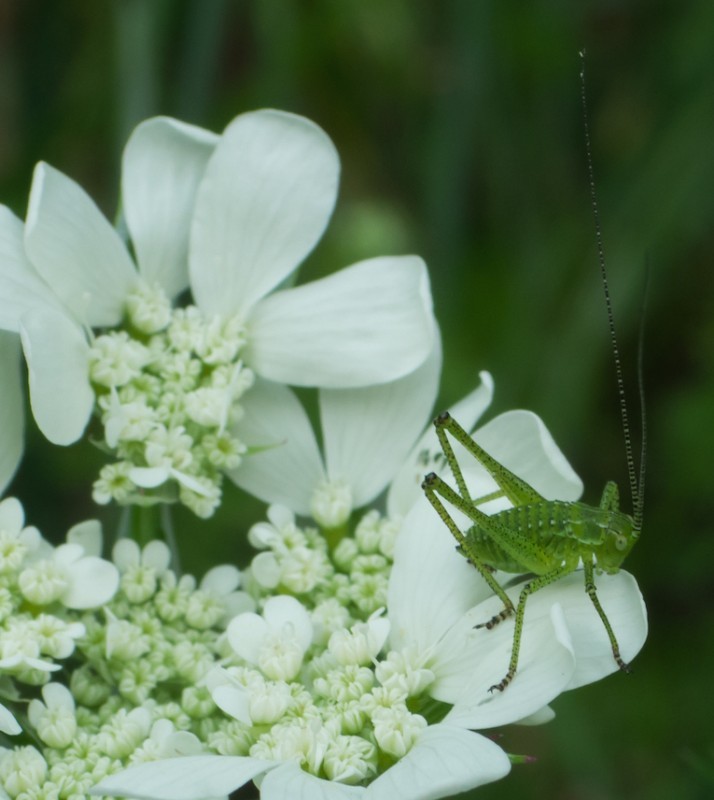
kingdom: Animalia
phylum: Arthropoda
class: Insecta
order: Orthoptera
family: Tettigoniidae
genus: Leptophyes
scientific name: Leptophyes albovittata
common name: Striped bush-cricket
